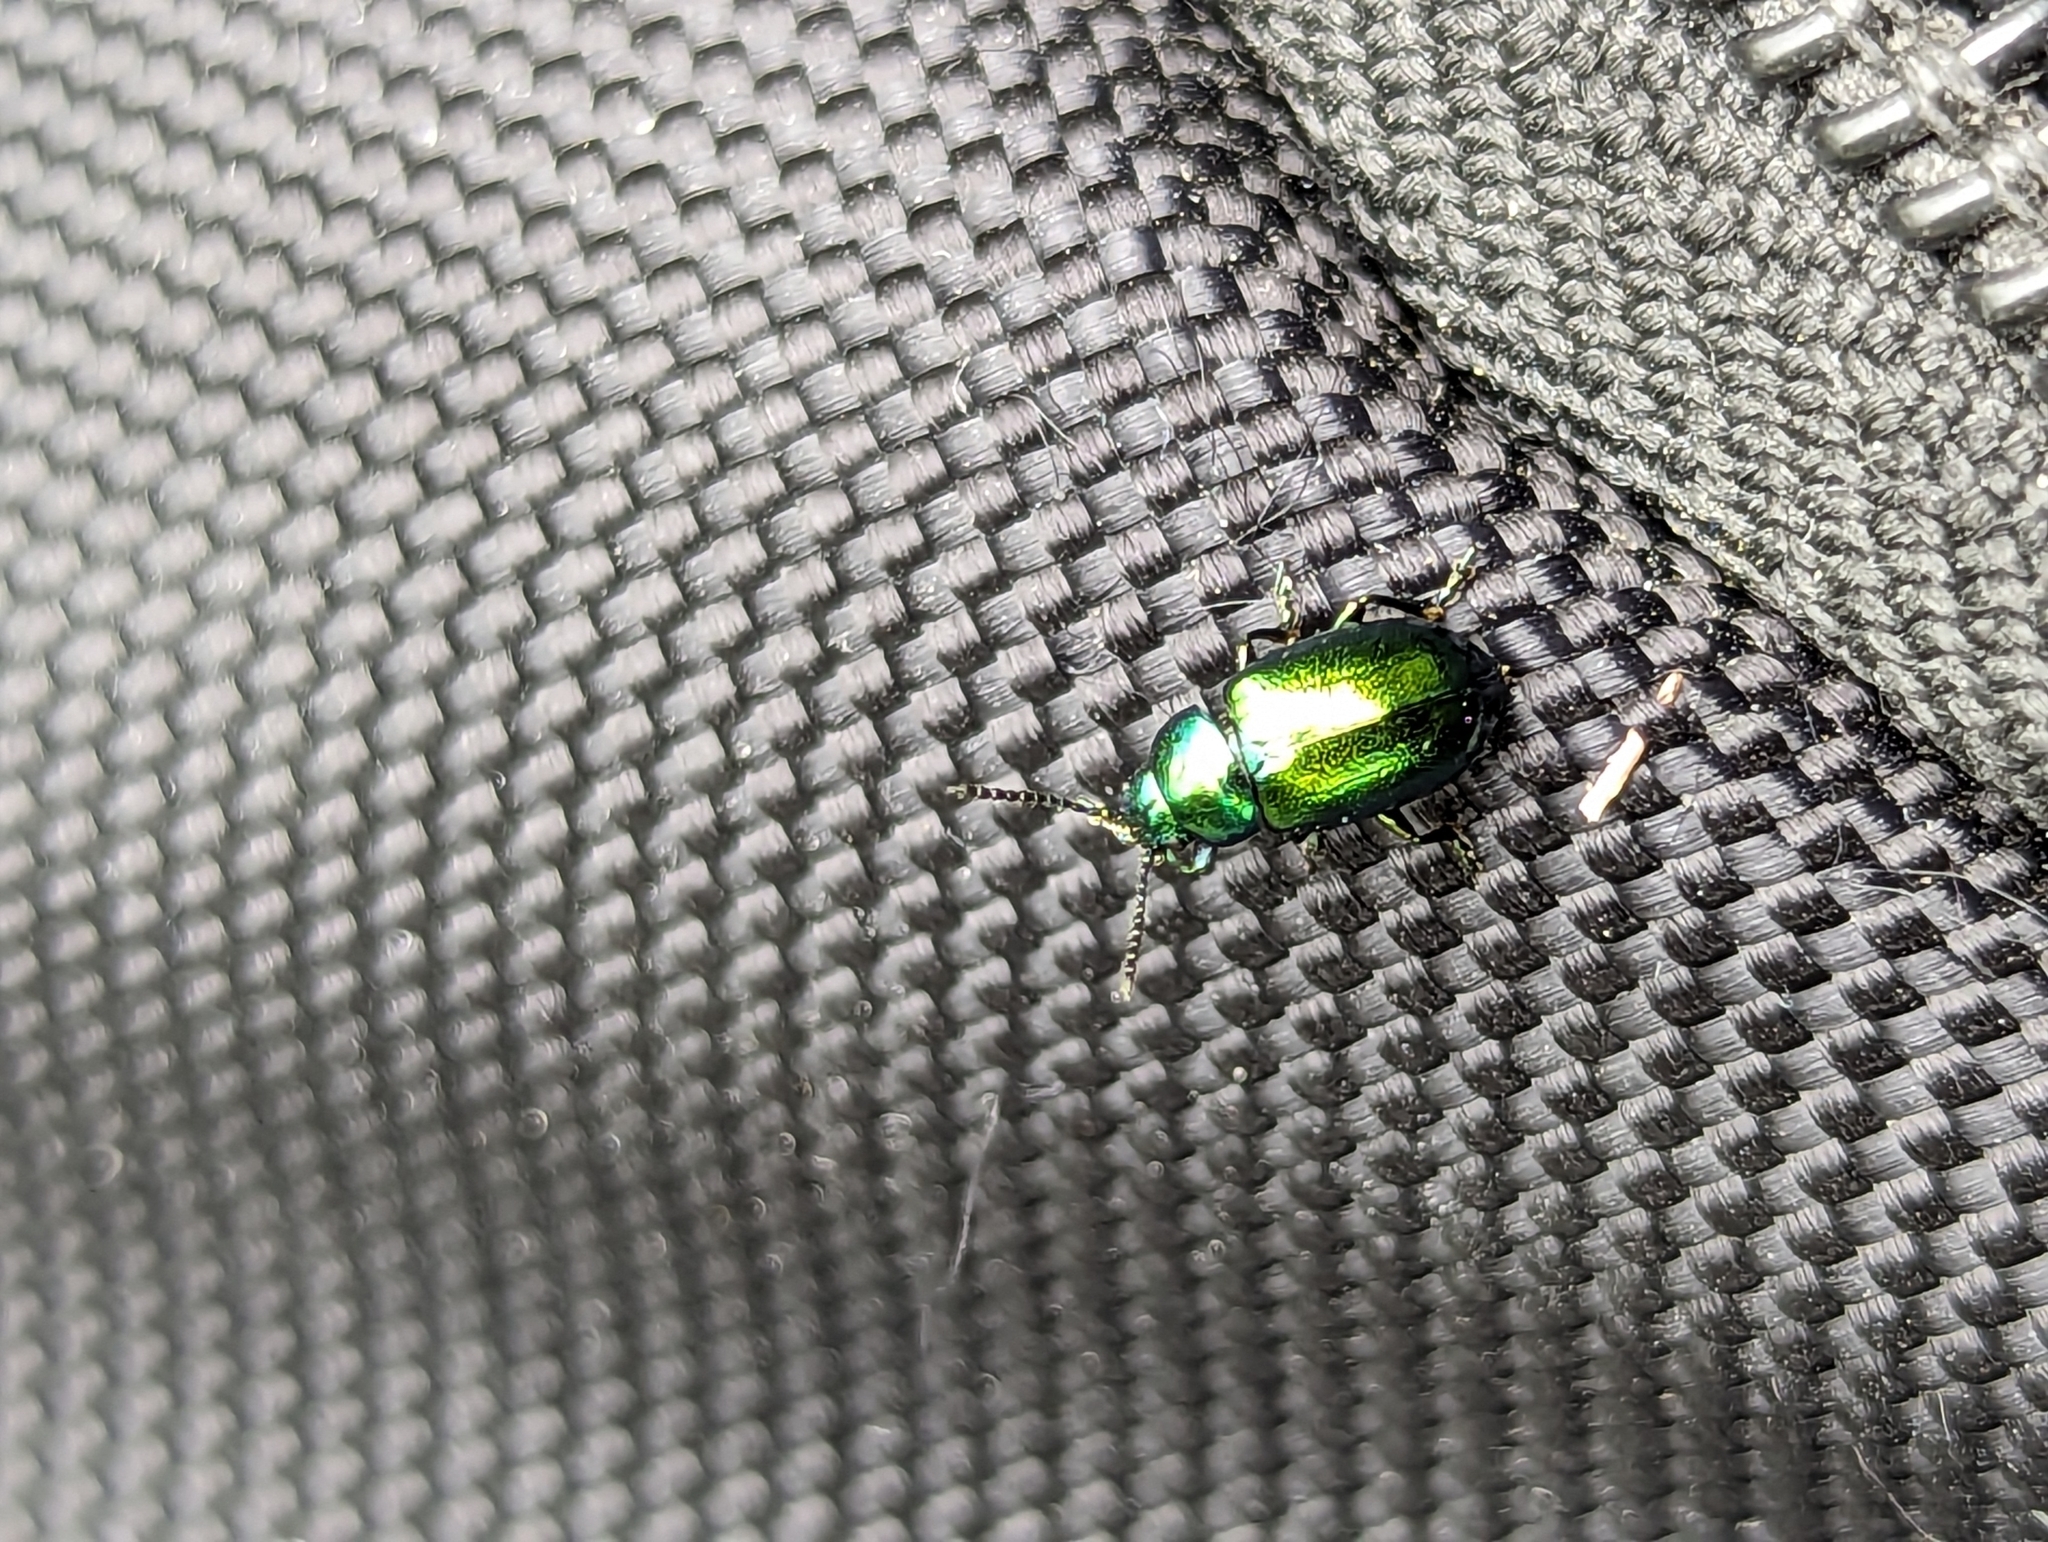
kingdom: Animalia
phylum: Arthropoda
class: Insecta
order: Coleoptera
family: Chrysomelidae
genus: Gastrophysa
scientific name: Gastrophysa viridula
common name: Green dock beetle
